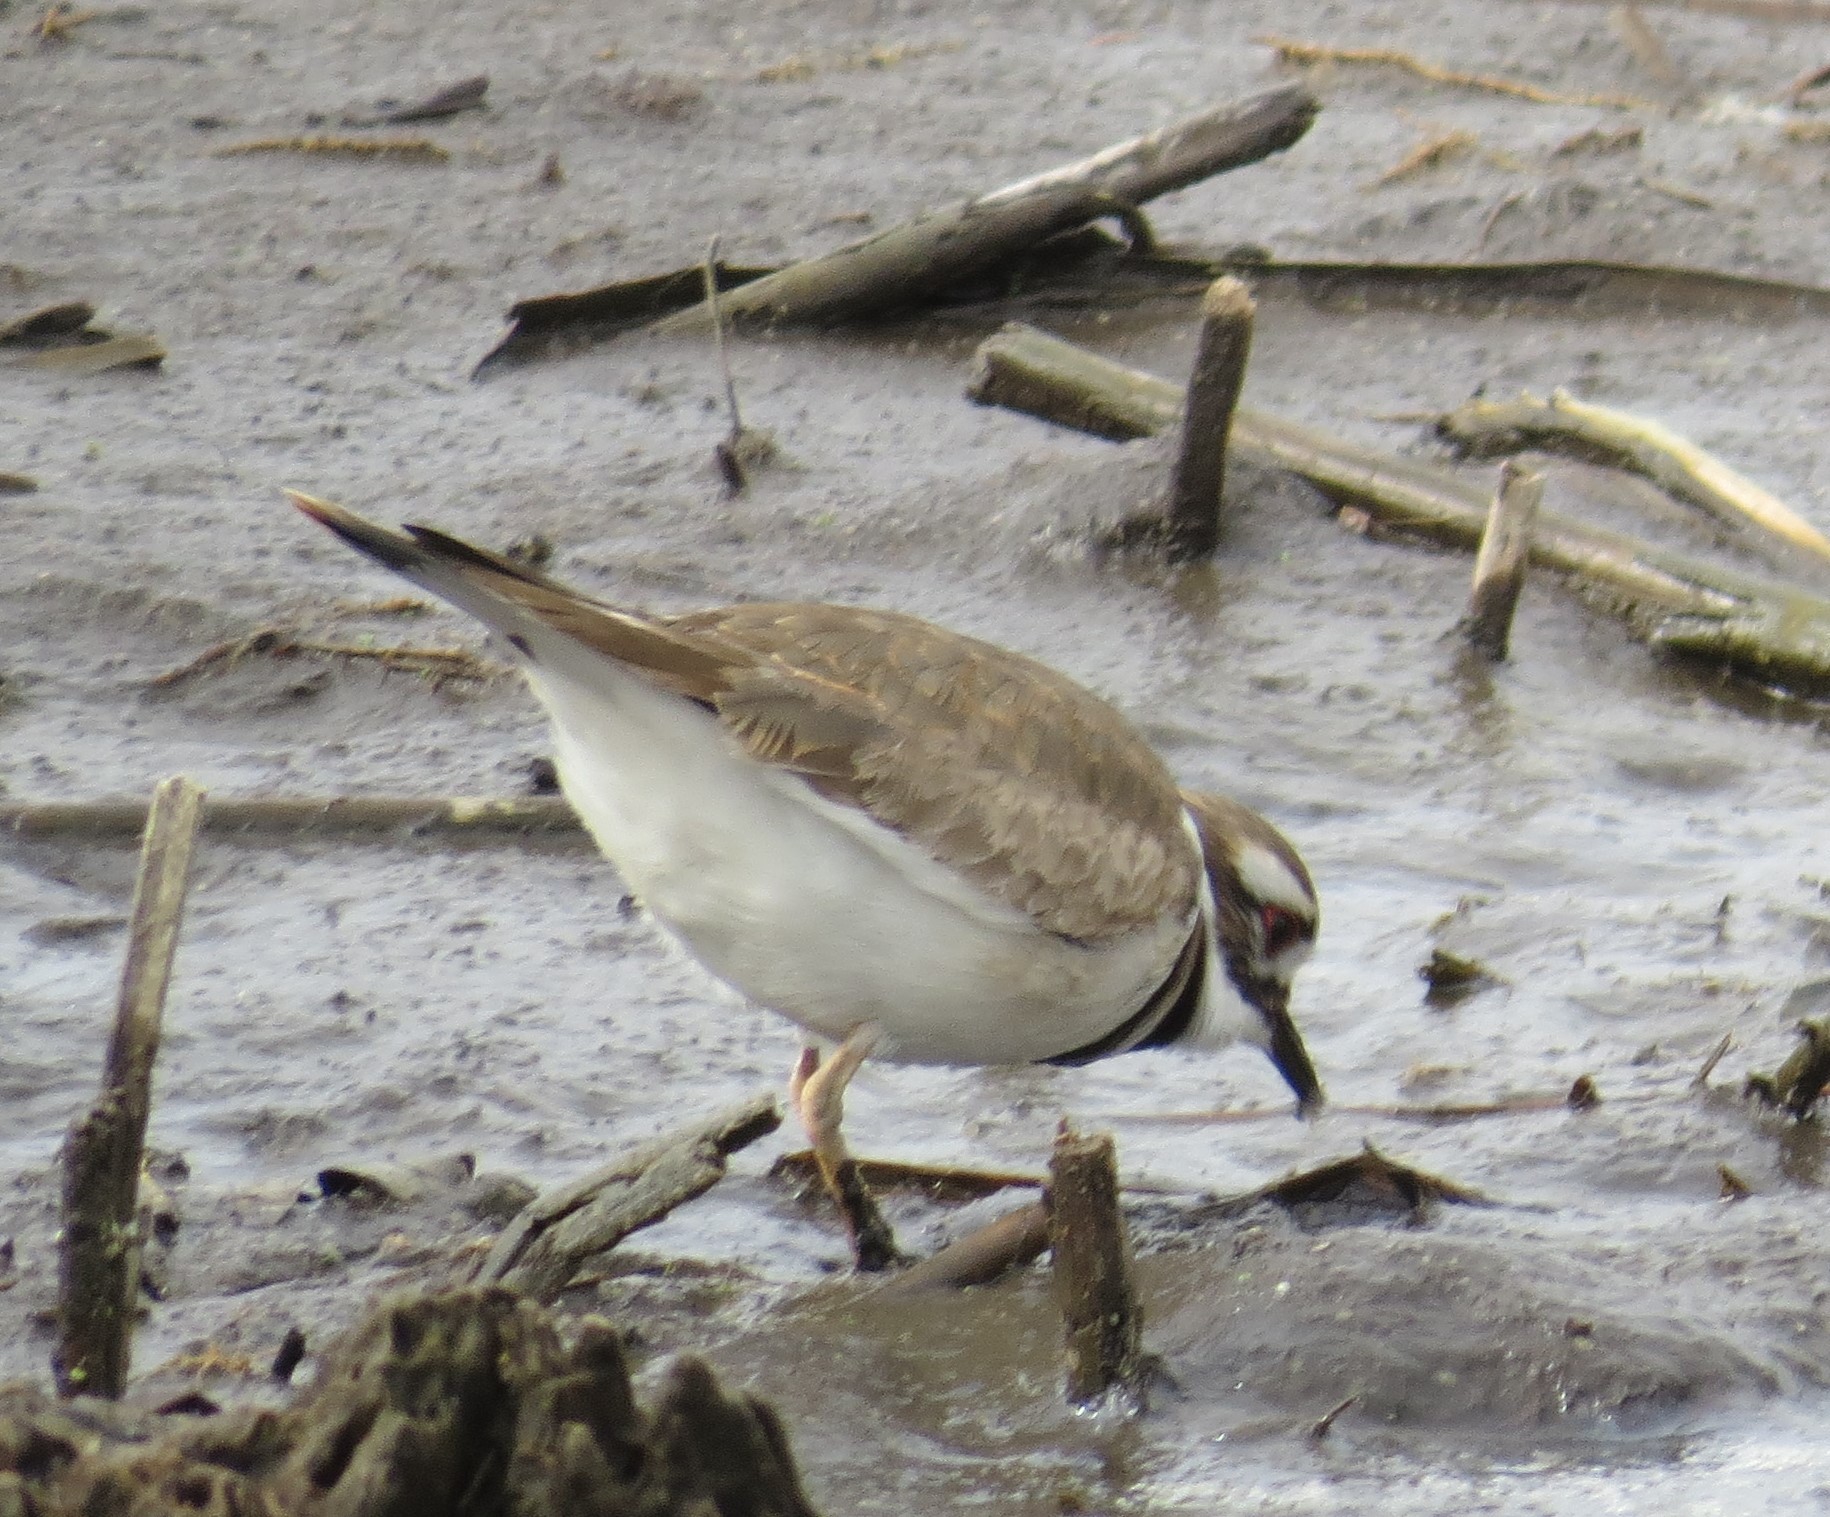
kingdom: Animalia
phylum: Chordata
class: Aves
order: Charadriiformes
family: Charadriidae
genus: Charadrius
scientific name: Charadrius vociferus
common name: Killdeer
